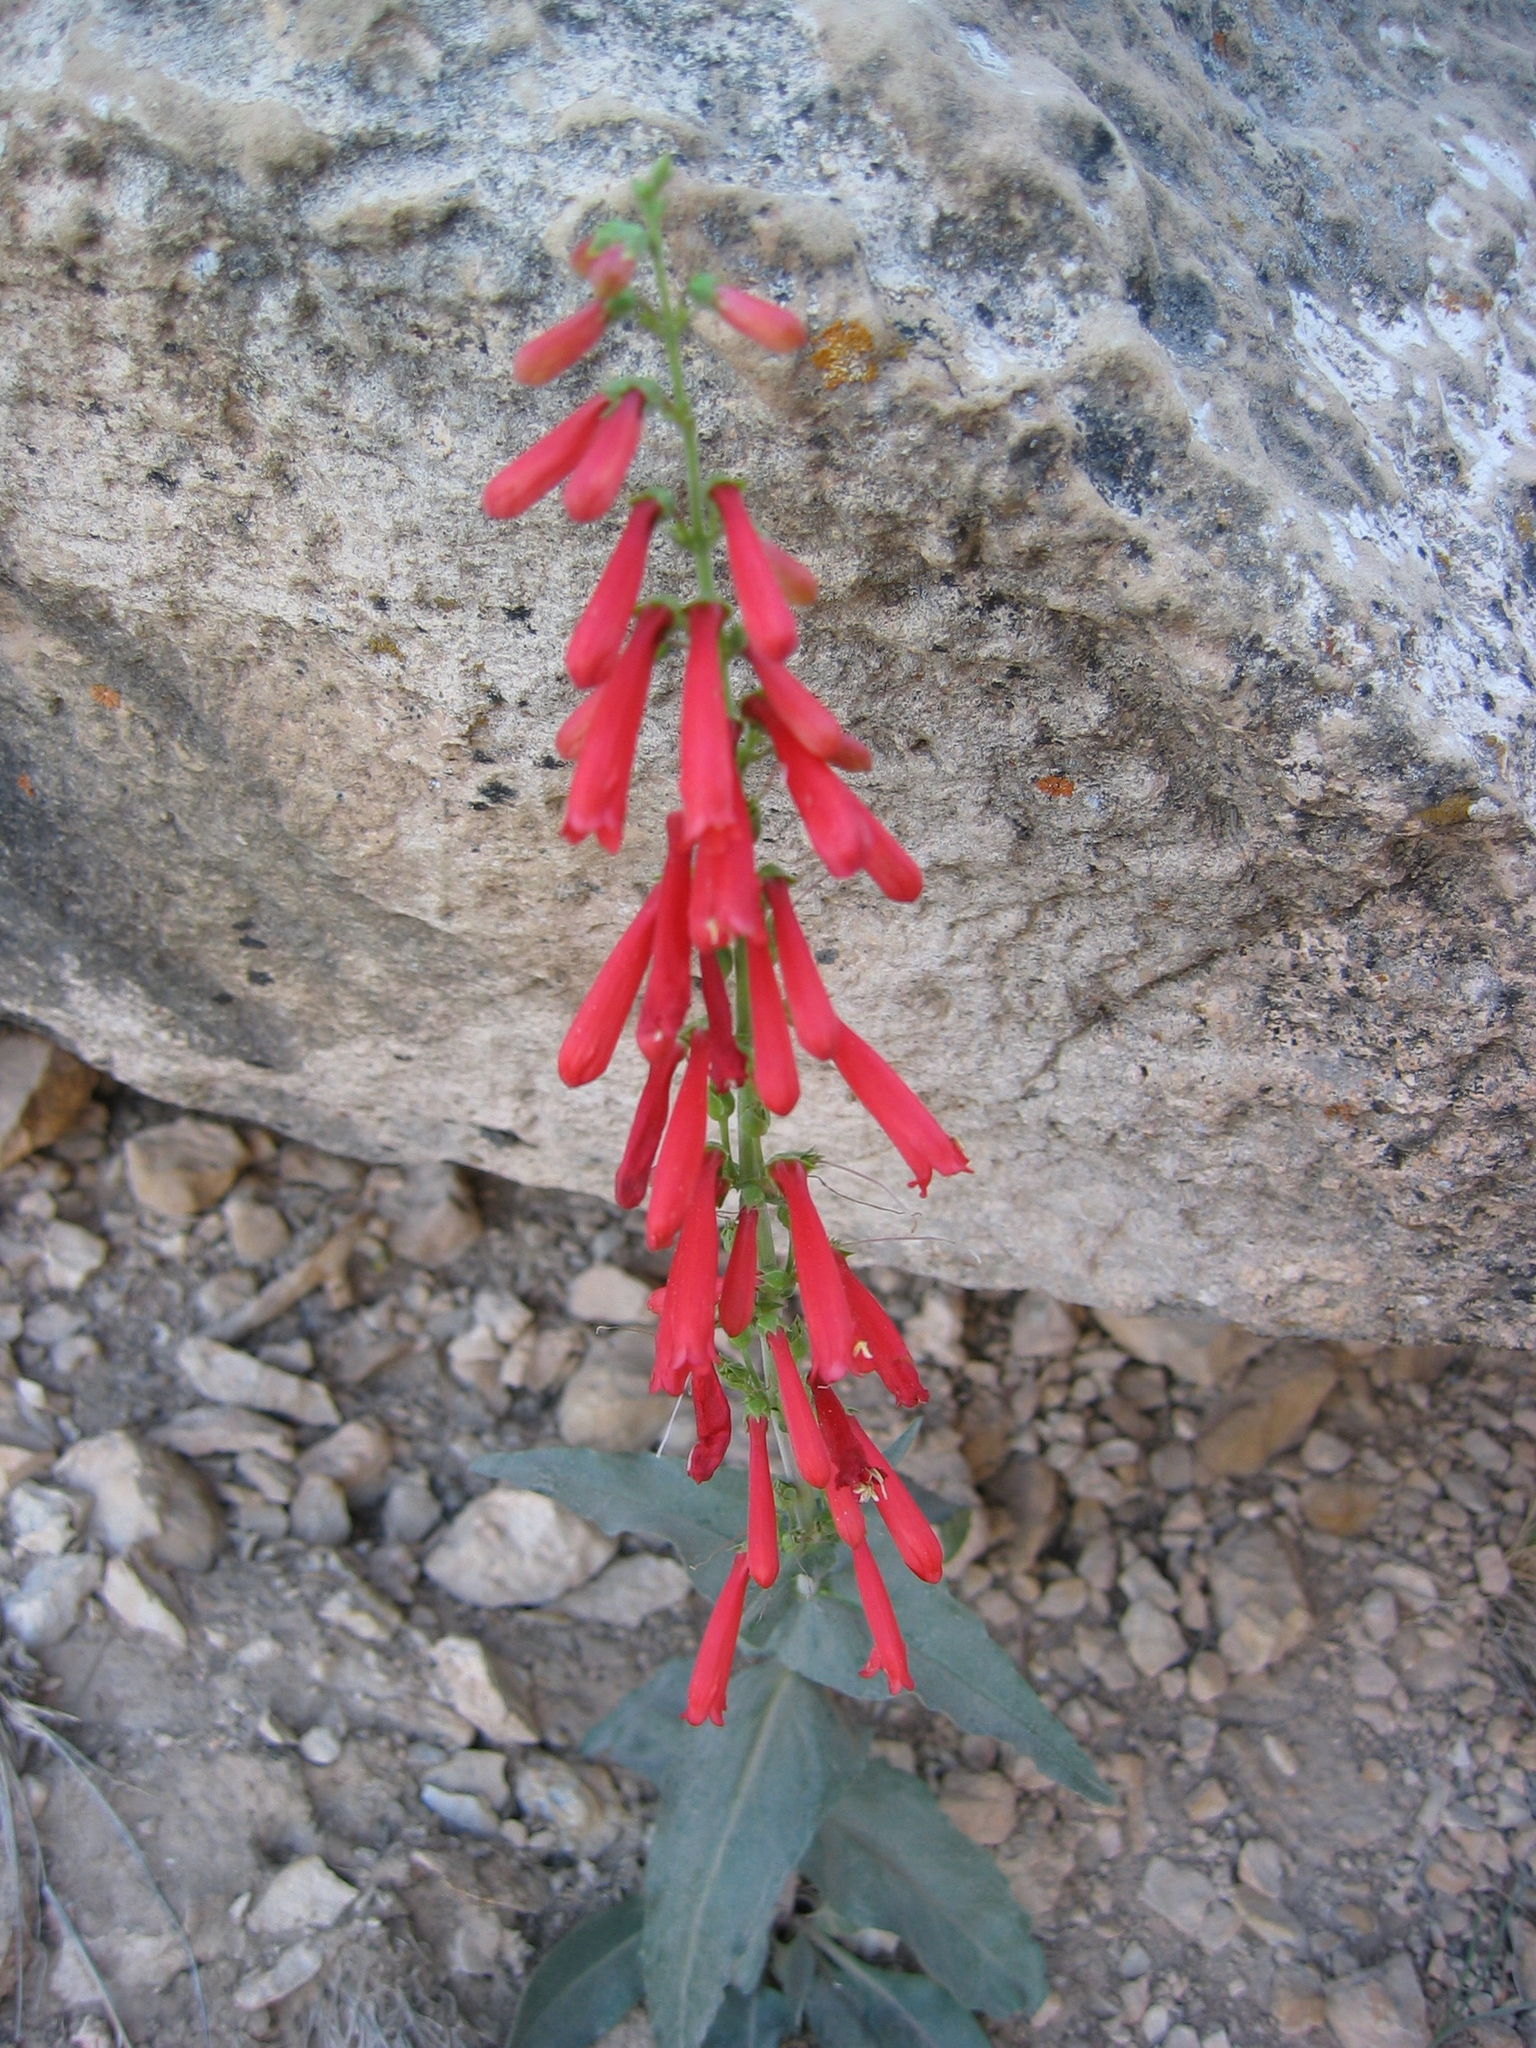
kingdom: Plantae
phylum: Tracheophyta
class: Magnoliopsida
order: Lamiales
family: Plantaginaceae
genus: Penstemon
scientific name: Penstemon eatonii
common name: Eaton's penstemon
